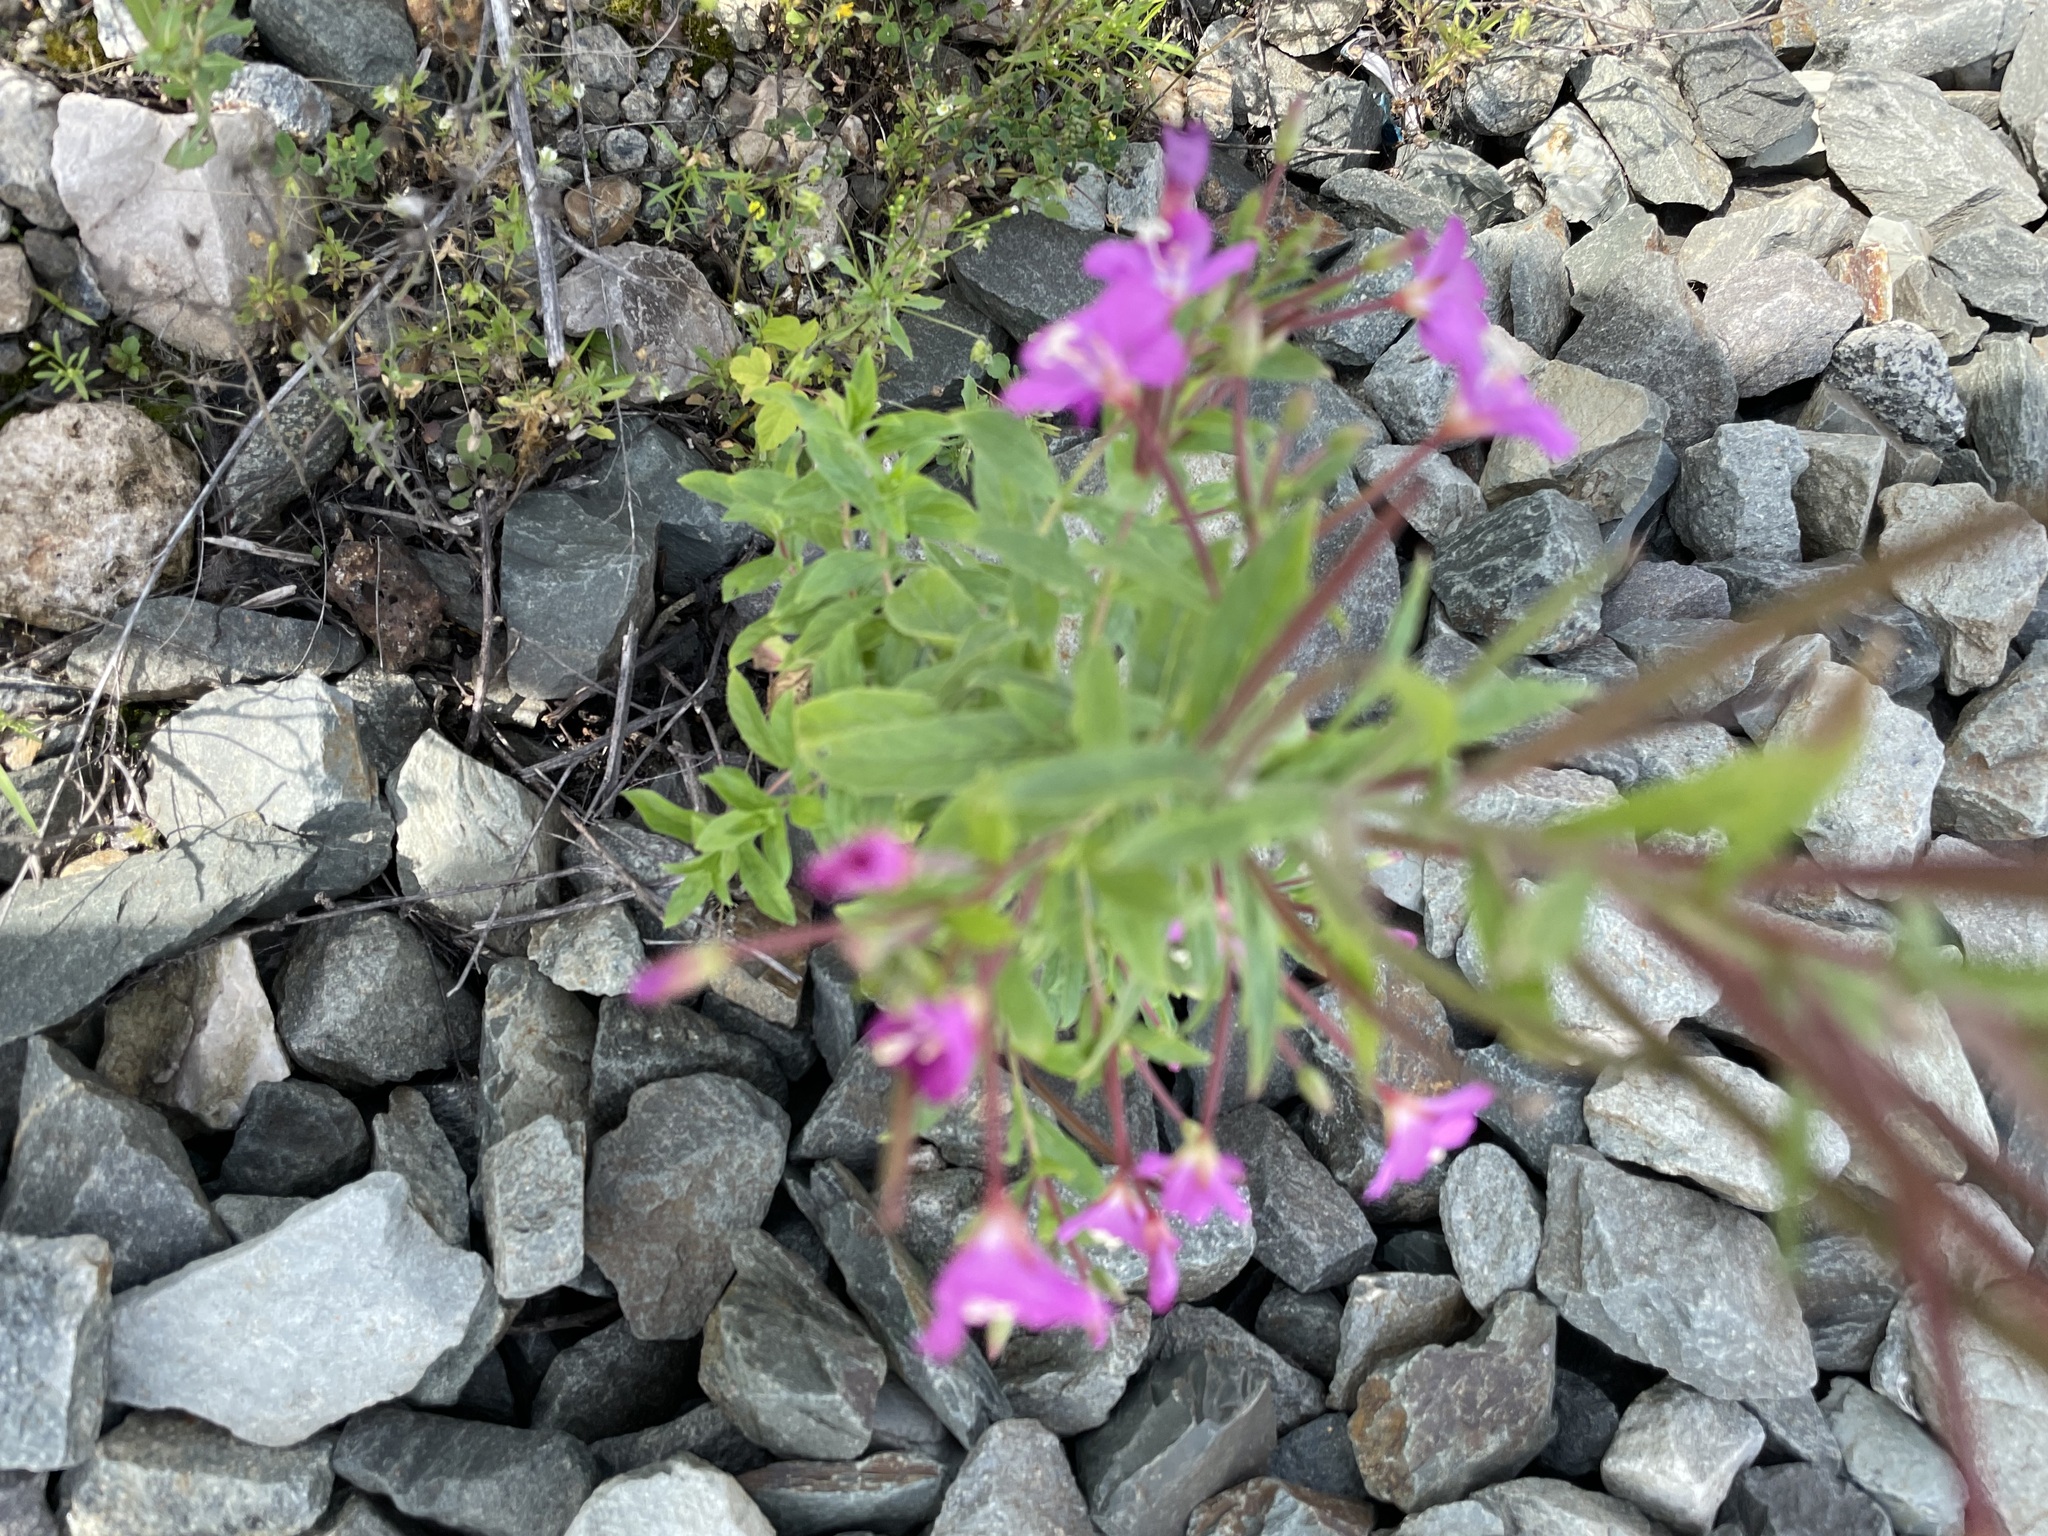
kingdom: Plantae
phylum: Tracheophyta
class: Magnoliopsida
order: Myrtales
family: Onagraceae
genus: Epilobium
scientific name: Epilobium hirsutum
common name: Great willowherb
